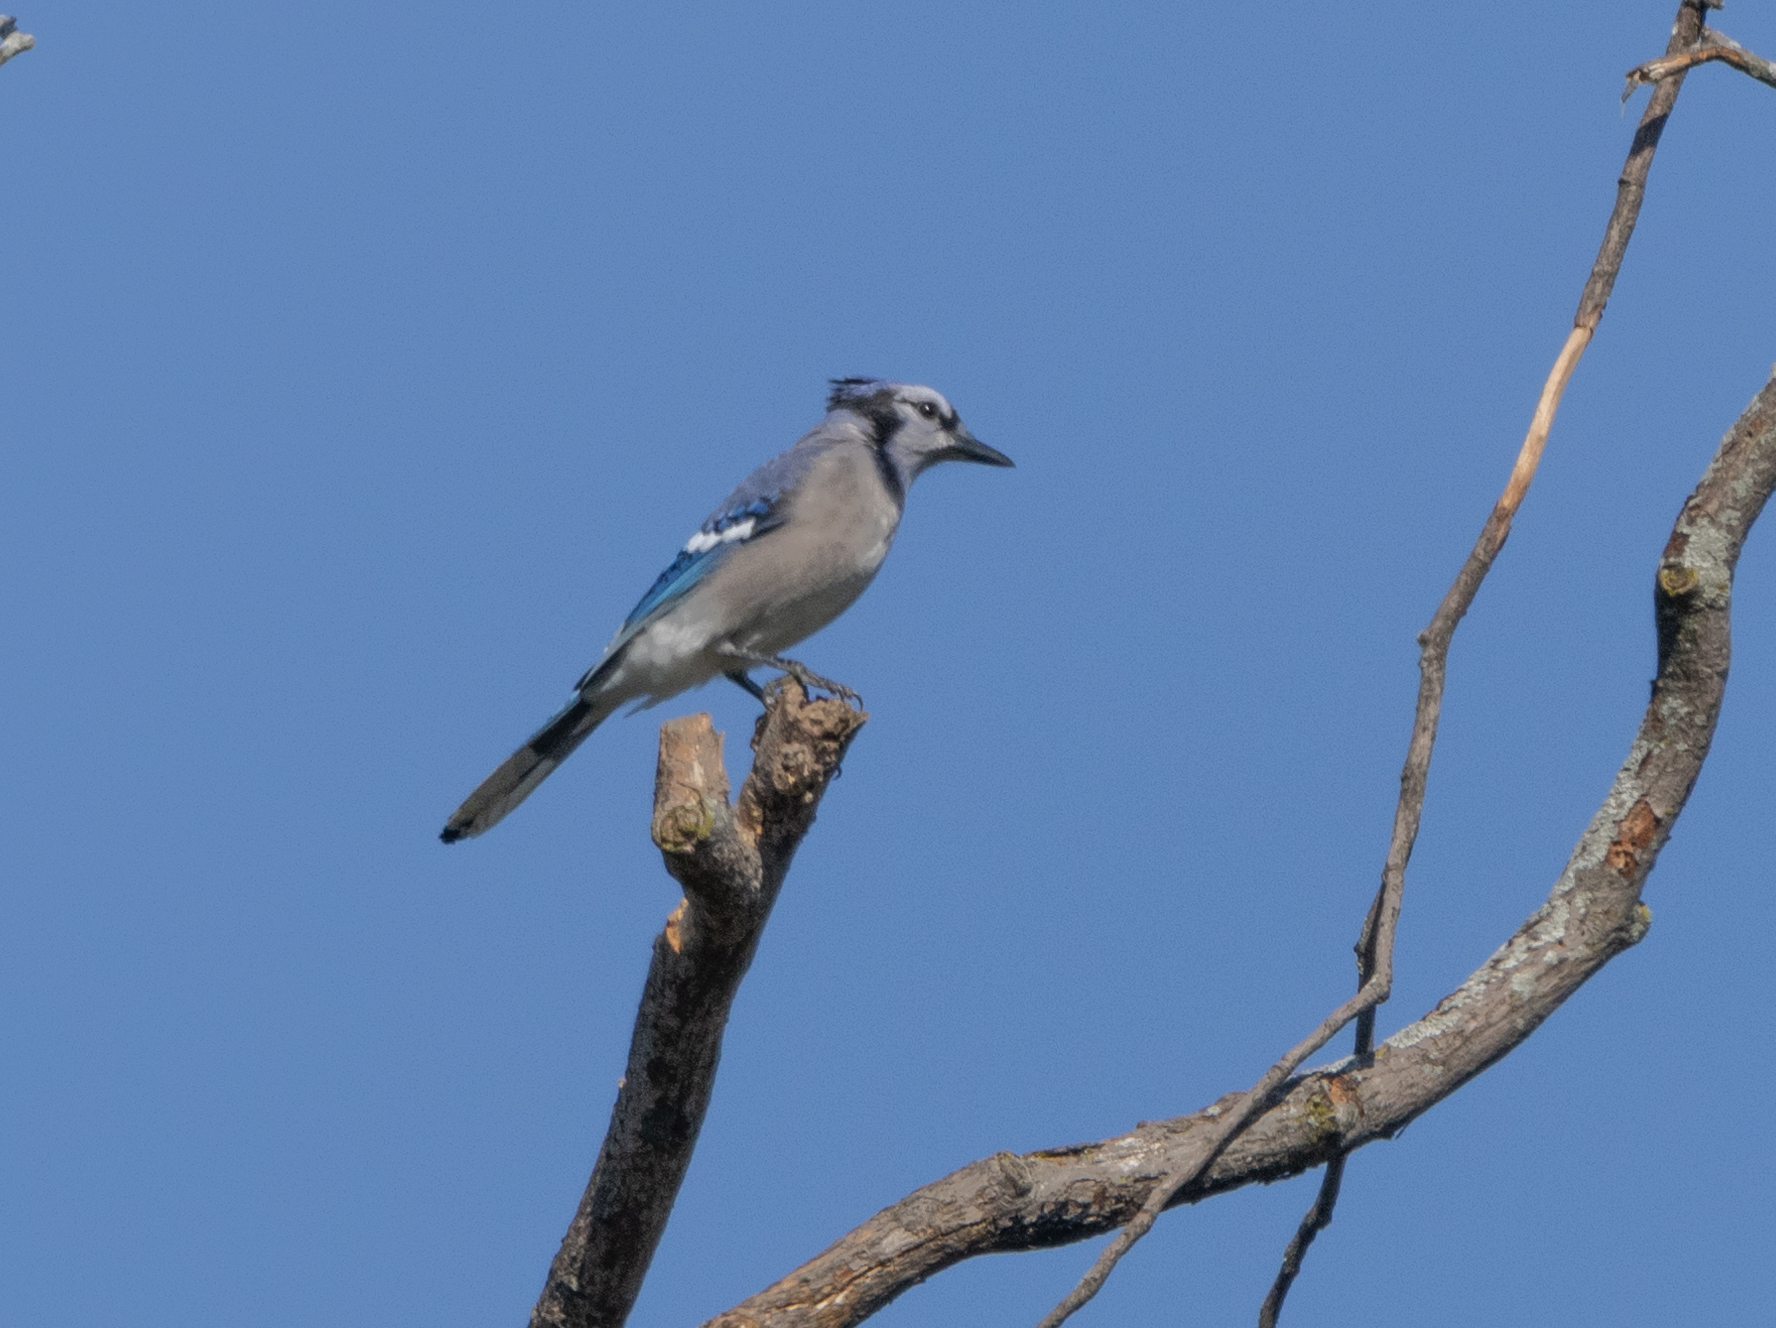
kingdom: Animalia
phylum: Chordata
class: Aves
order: Passeriformes
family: Corvidae
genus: Cyanocitta
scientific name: Cyanocitta cristata
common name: Blue jay
